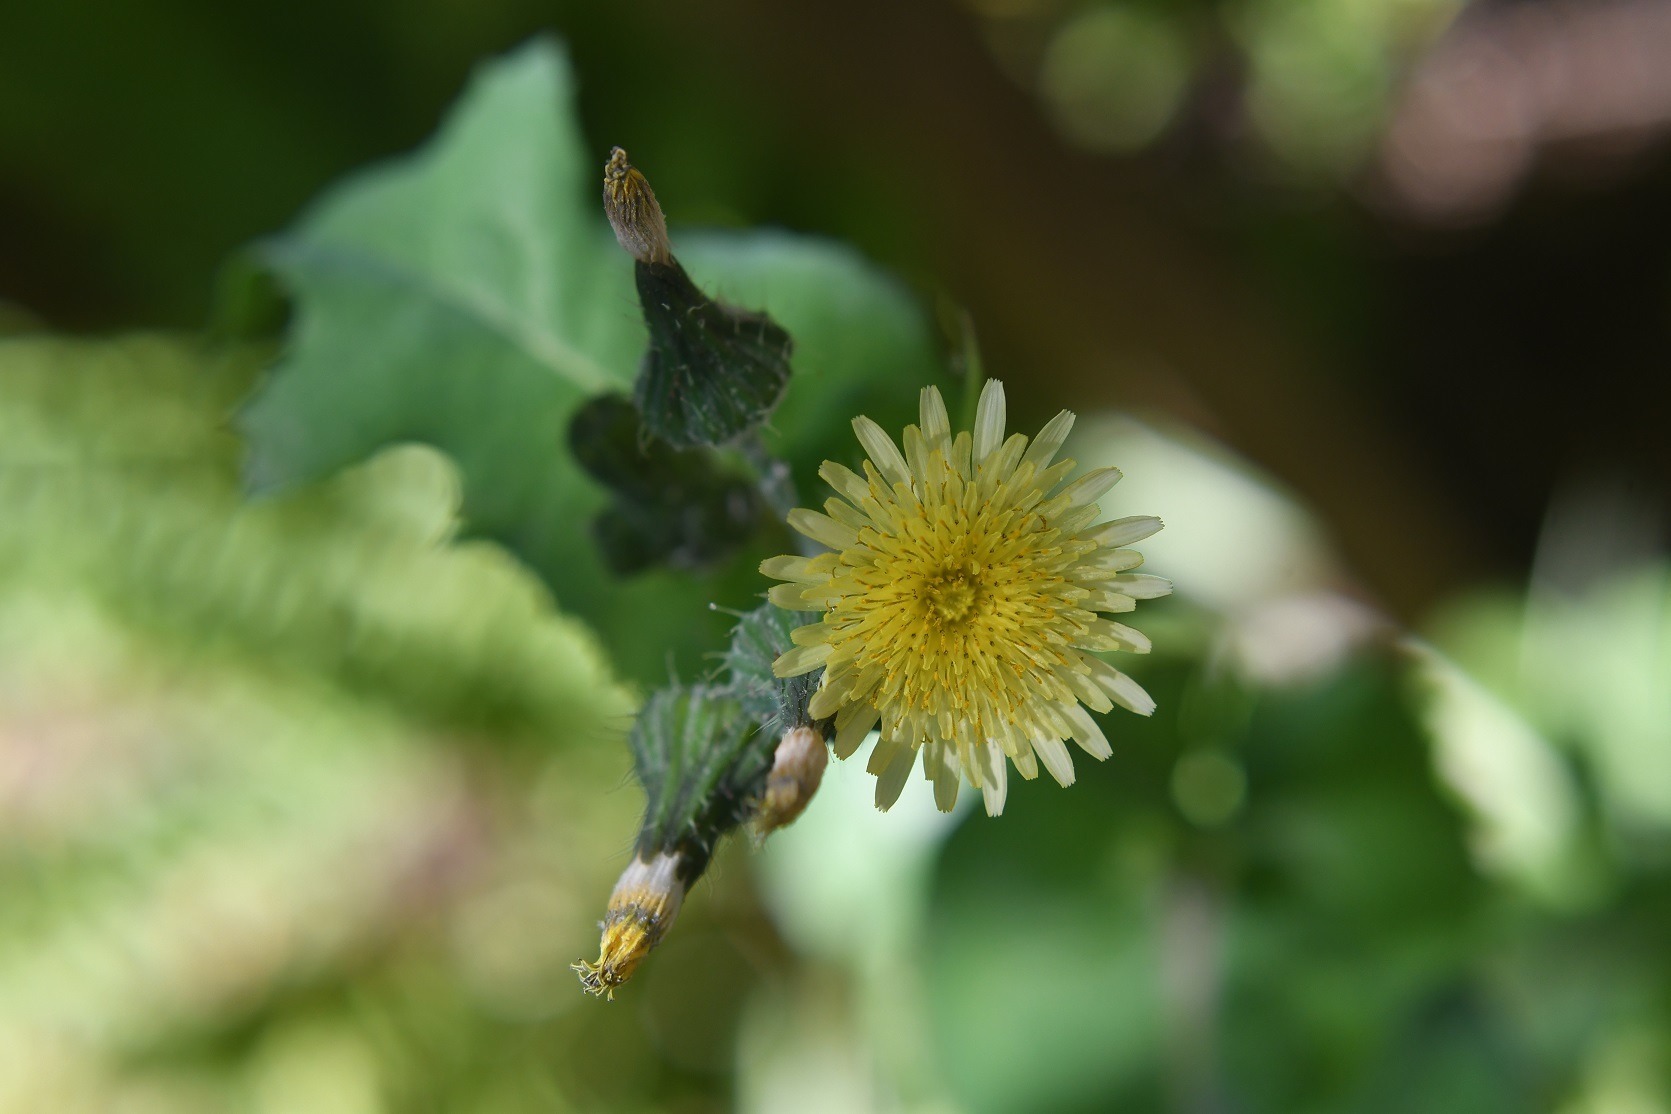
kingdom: Plantae
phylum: Tracheophyta
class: Magnoliopsida
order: Asterales
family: Asteraceae
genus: Sonchus
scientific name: Sonchus oleraceus
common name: Common sowthistle
